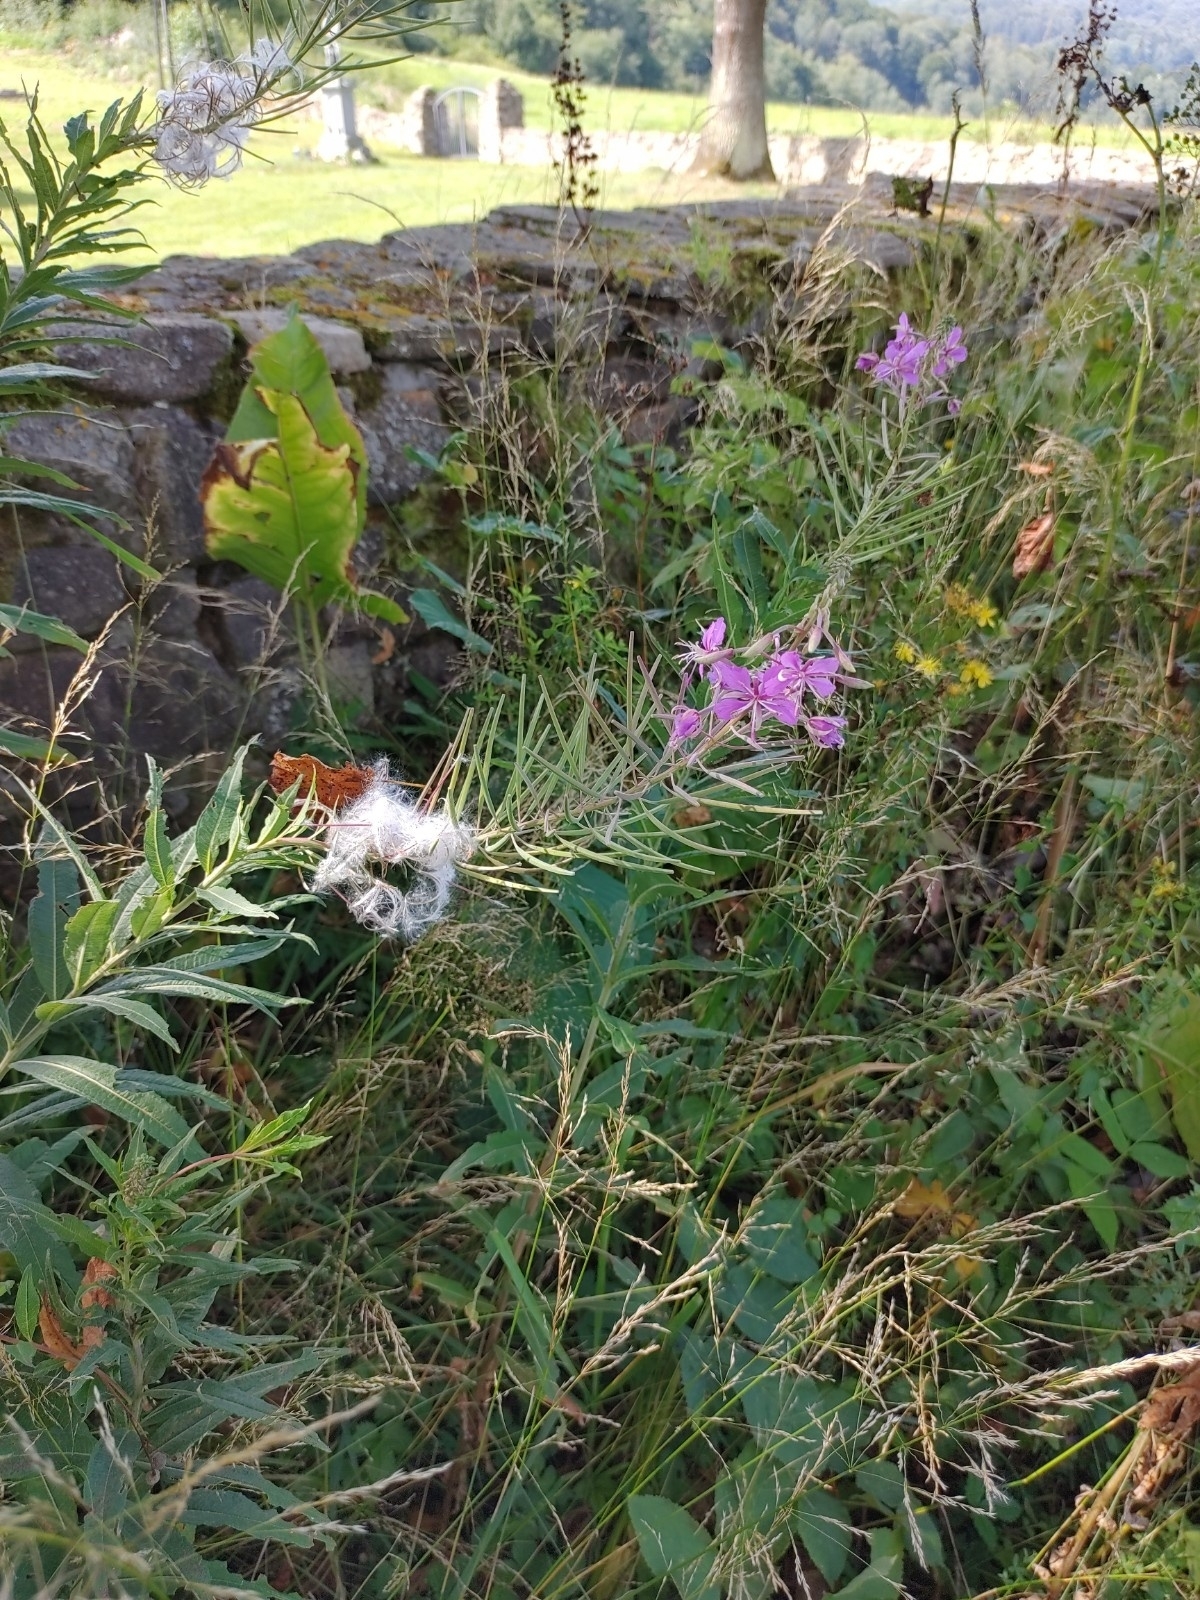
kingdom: Plantae
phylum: Tracheophyta
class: Magnoliopsida
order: Myrtales
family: Onagraceae
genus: Chamaenerion
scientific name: Chamaenerion angustifolium
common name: Fireweed
